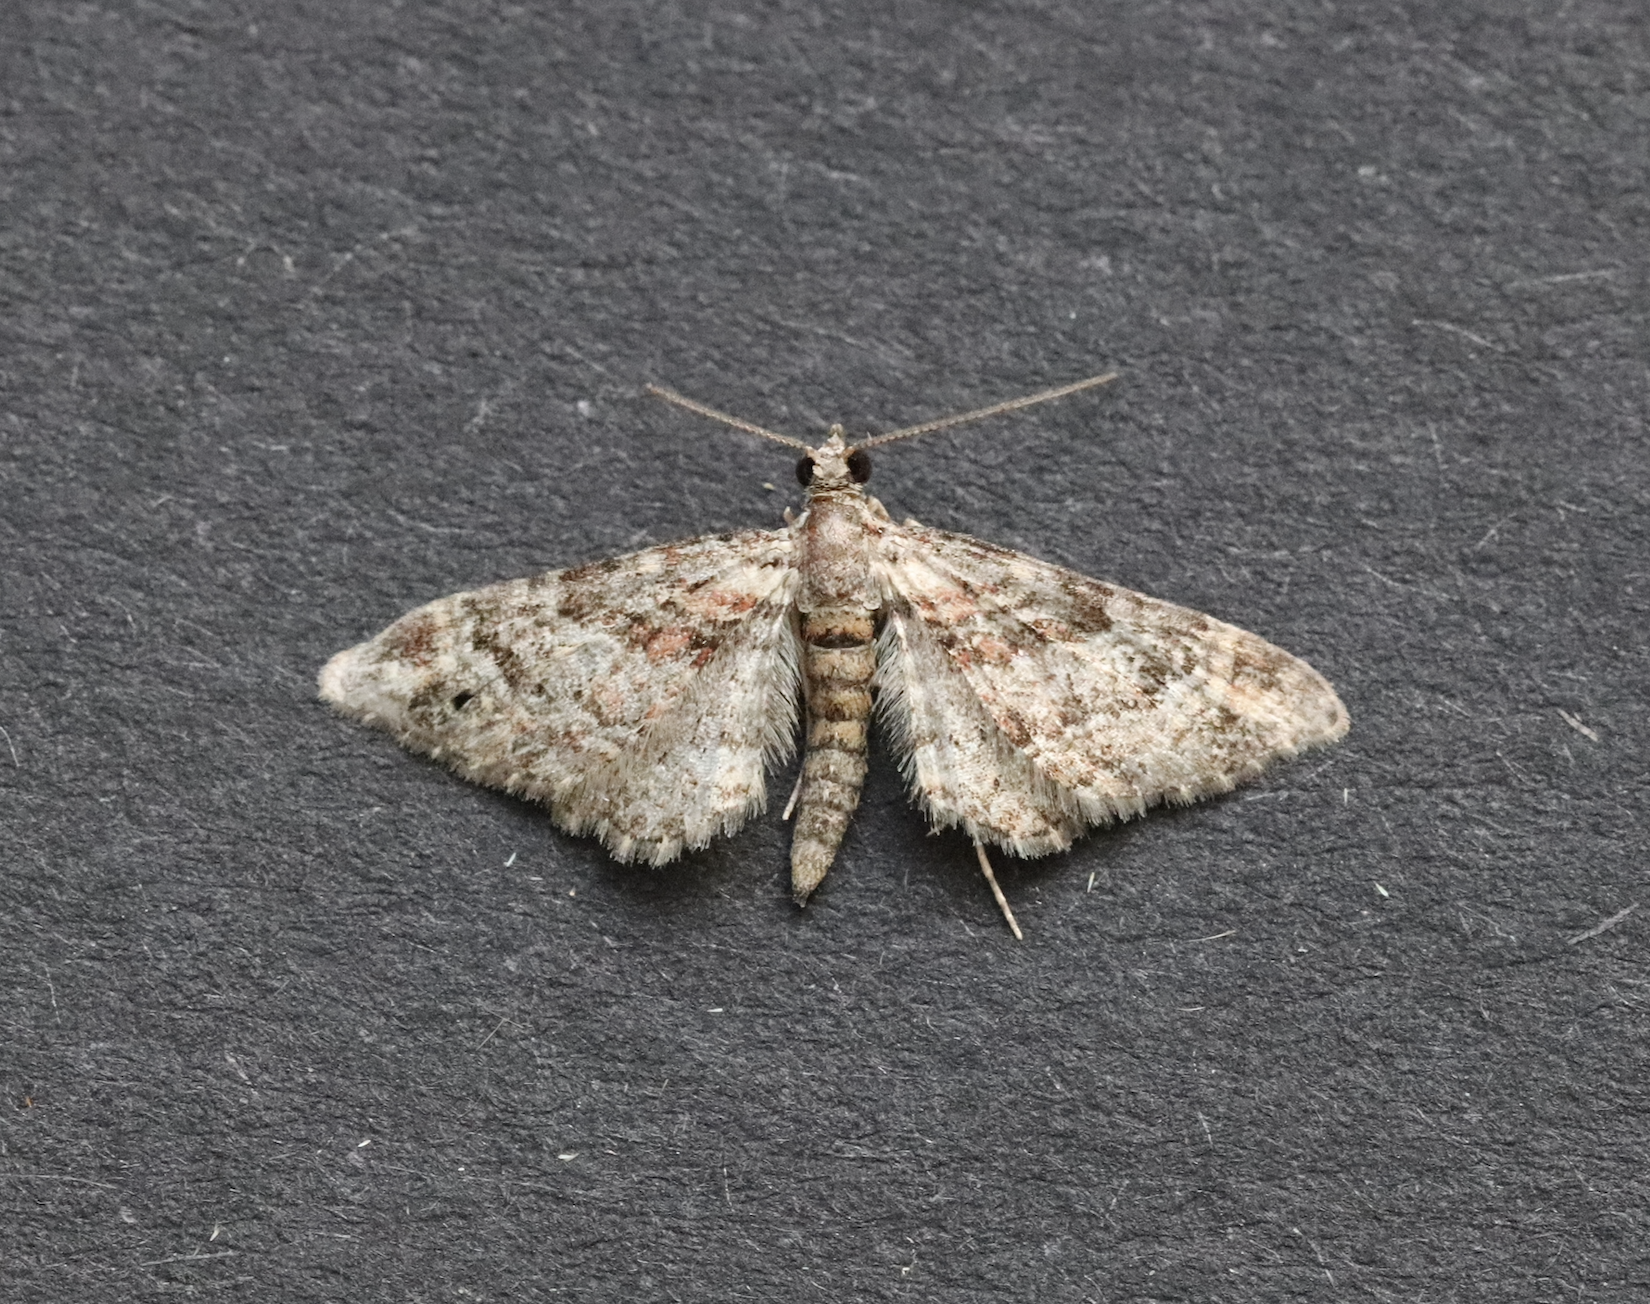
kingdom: Animalia
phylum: Arthropoda
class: Insecta
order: Lepidoptera
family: Geometridae
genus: Gymnoscelis
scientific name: Gymnoscelis rufifasciata
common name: Double-striped pug
